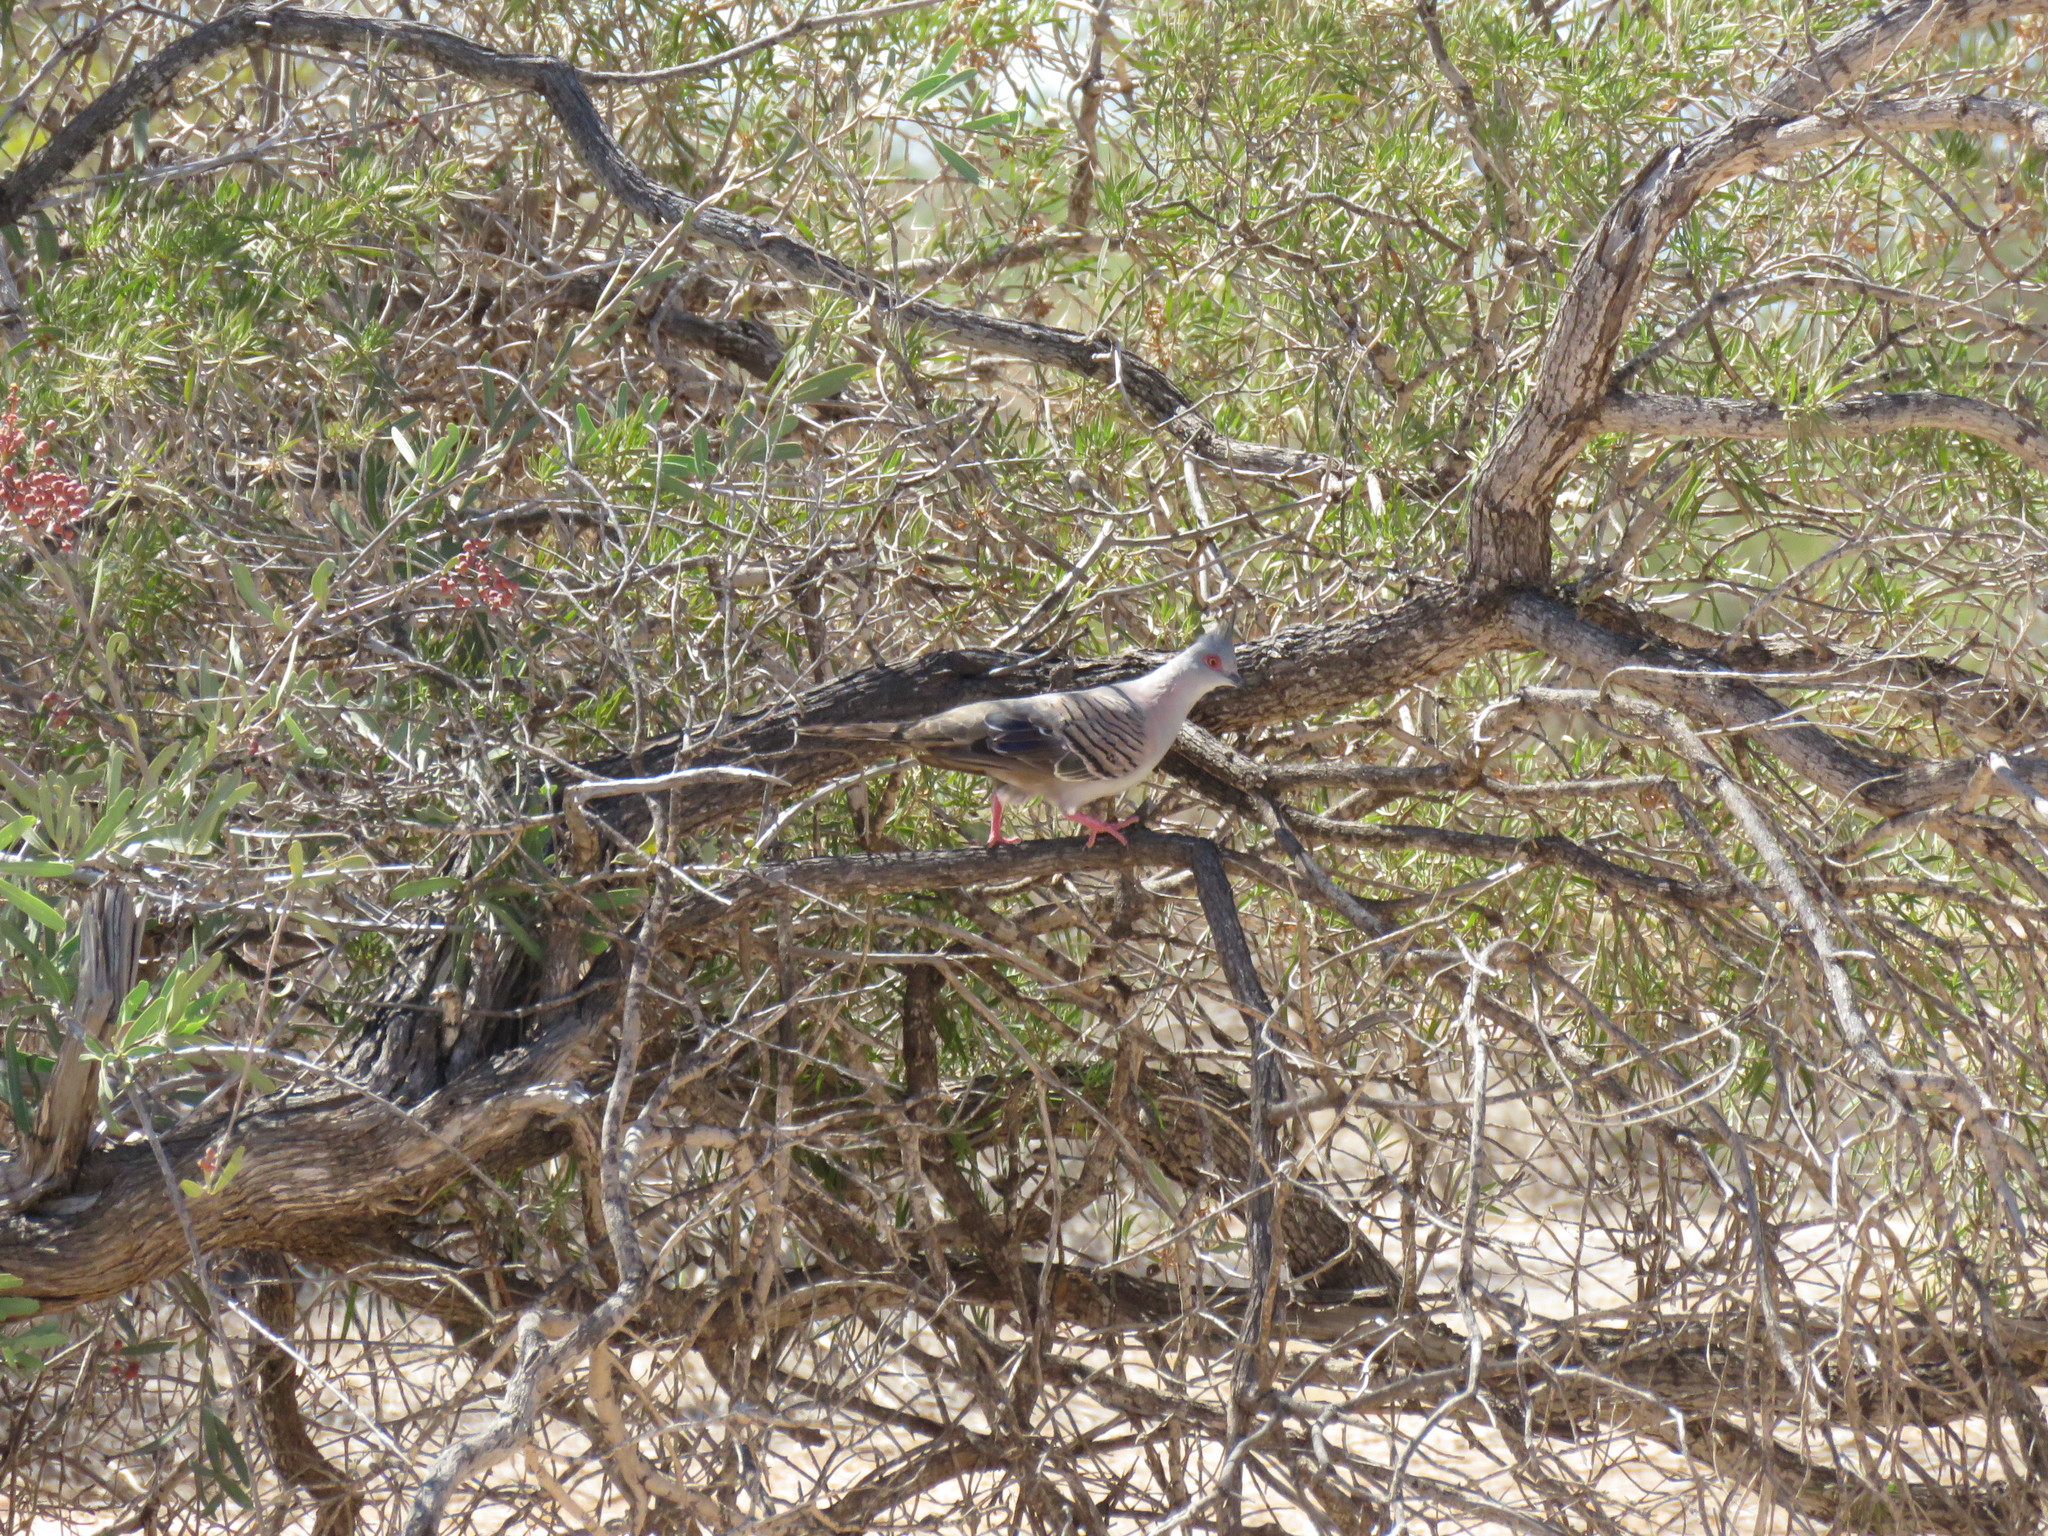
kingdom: Animalia
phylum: Chordata
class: Aves
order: Columbiformes
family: Columbidae
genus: Ocyphaps
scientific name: Ocyphaps lophotes
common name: Crested pigeon
